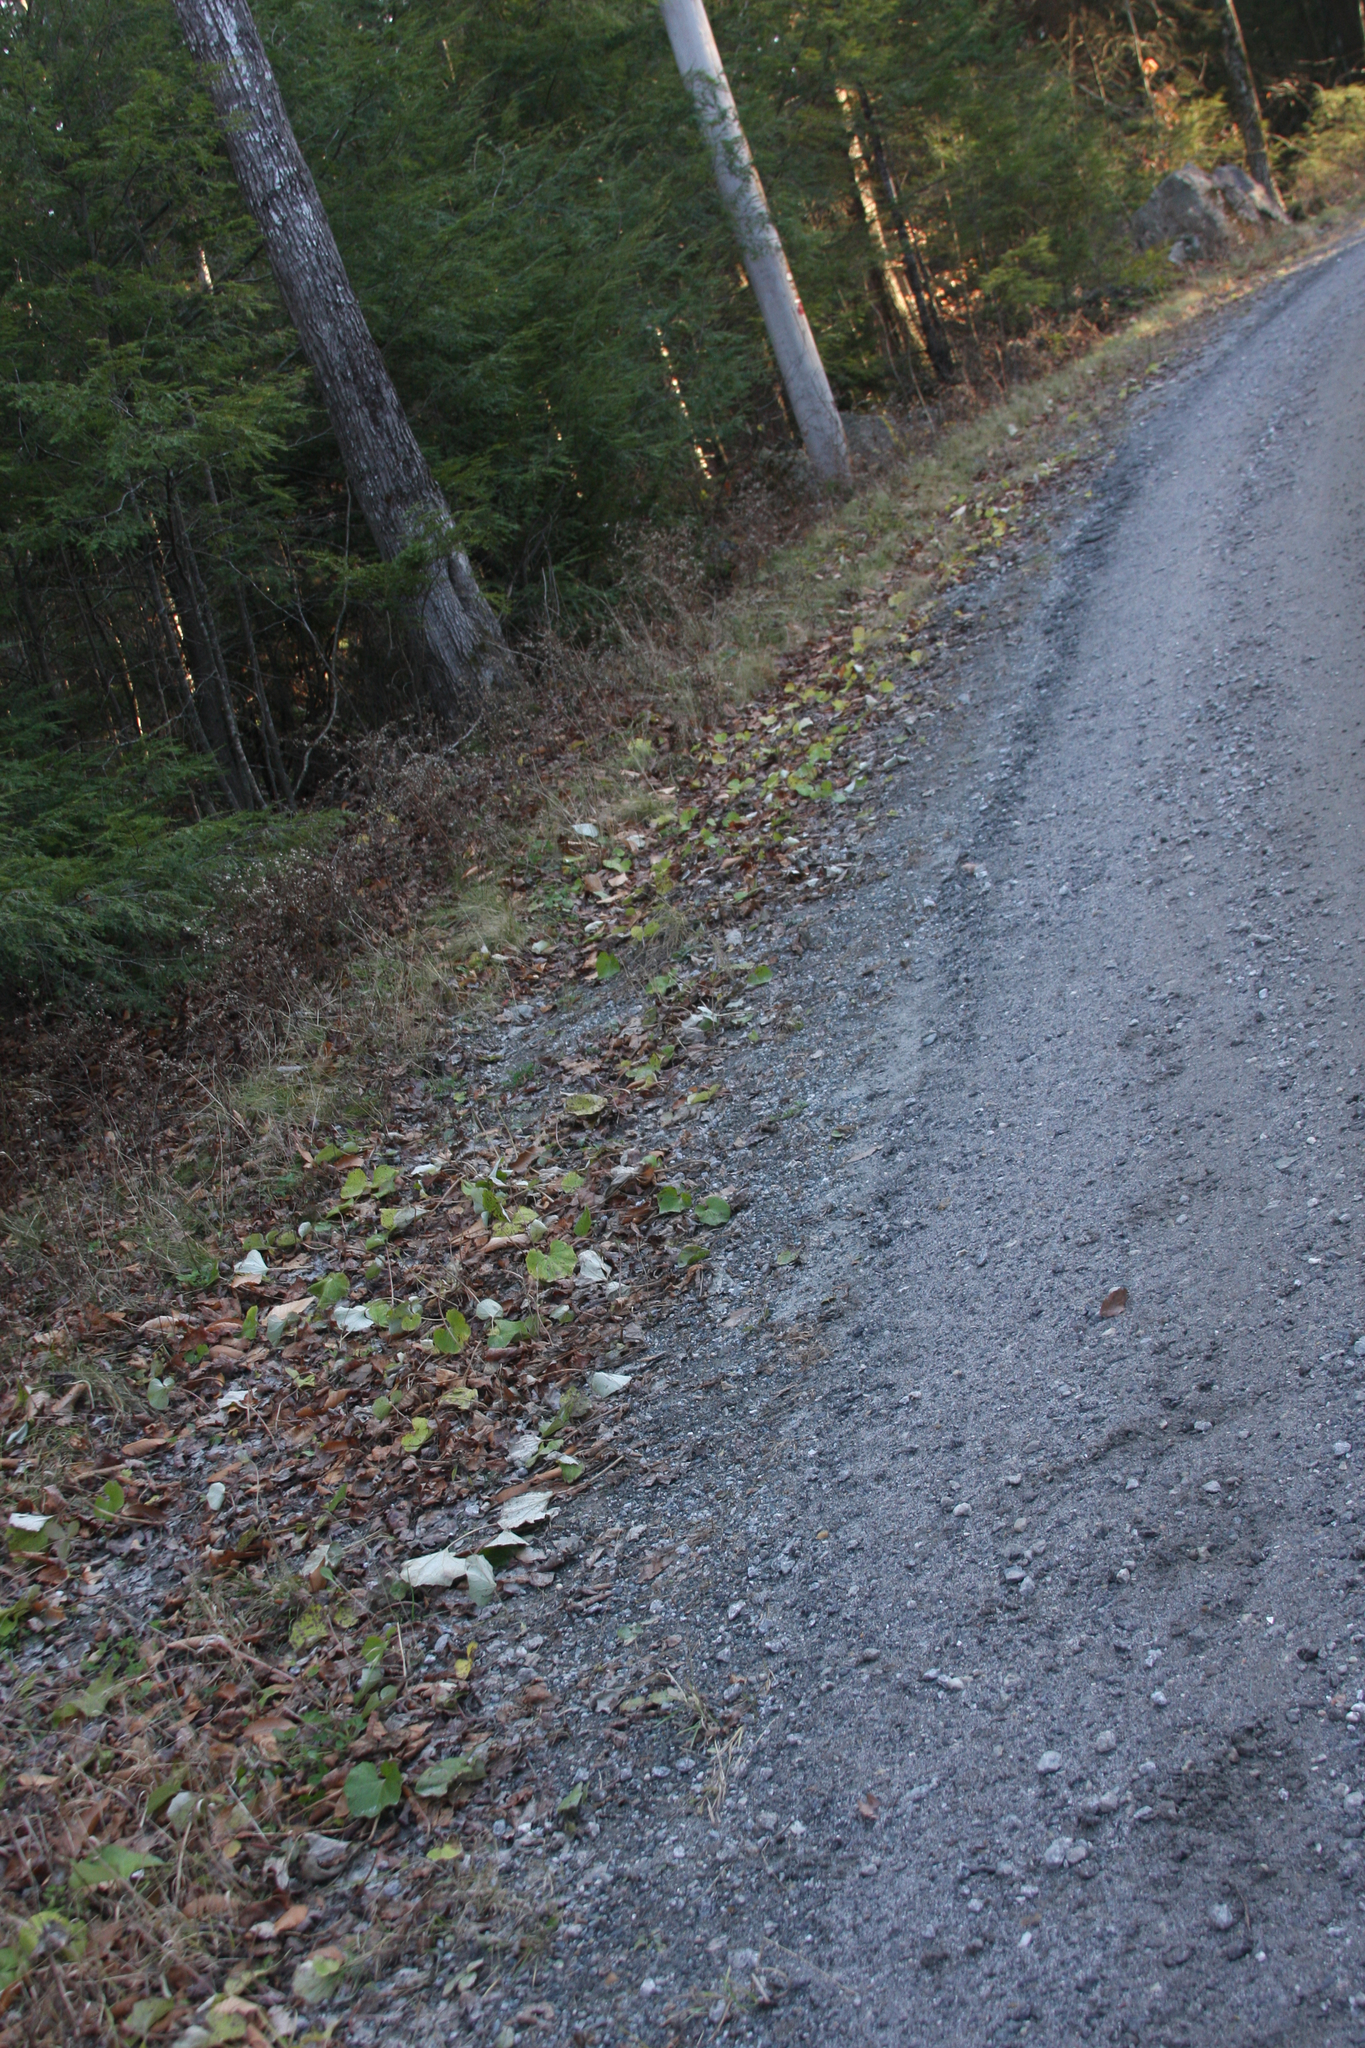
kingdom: Plantae
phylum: Tracheophyta
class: Magnoliopsida
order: Asterales
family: Asteraceae
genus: Tussilago
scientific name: Tussilago farfara
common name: Coltsfoot
